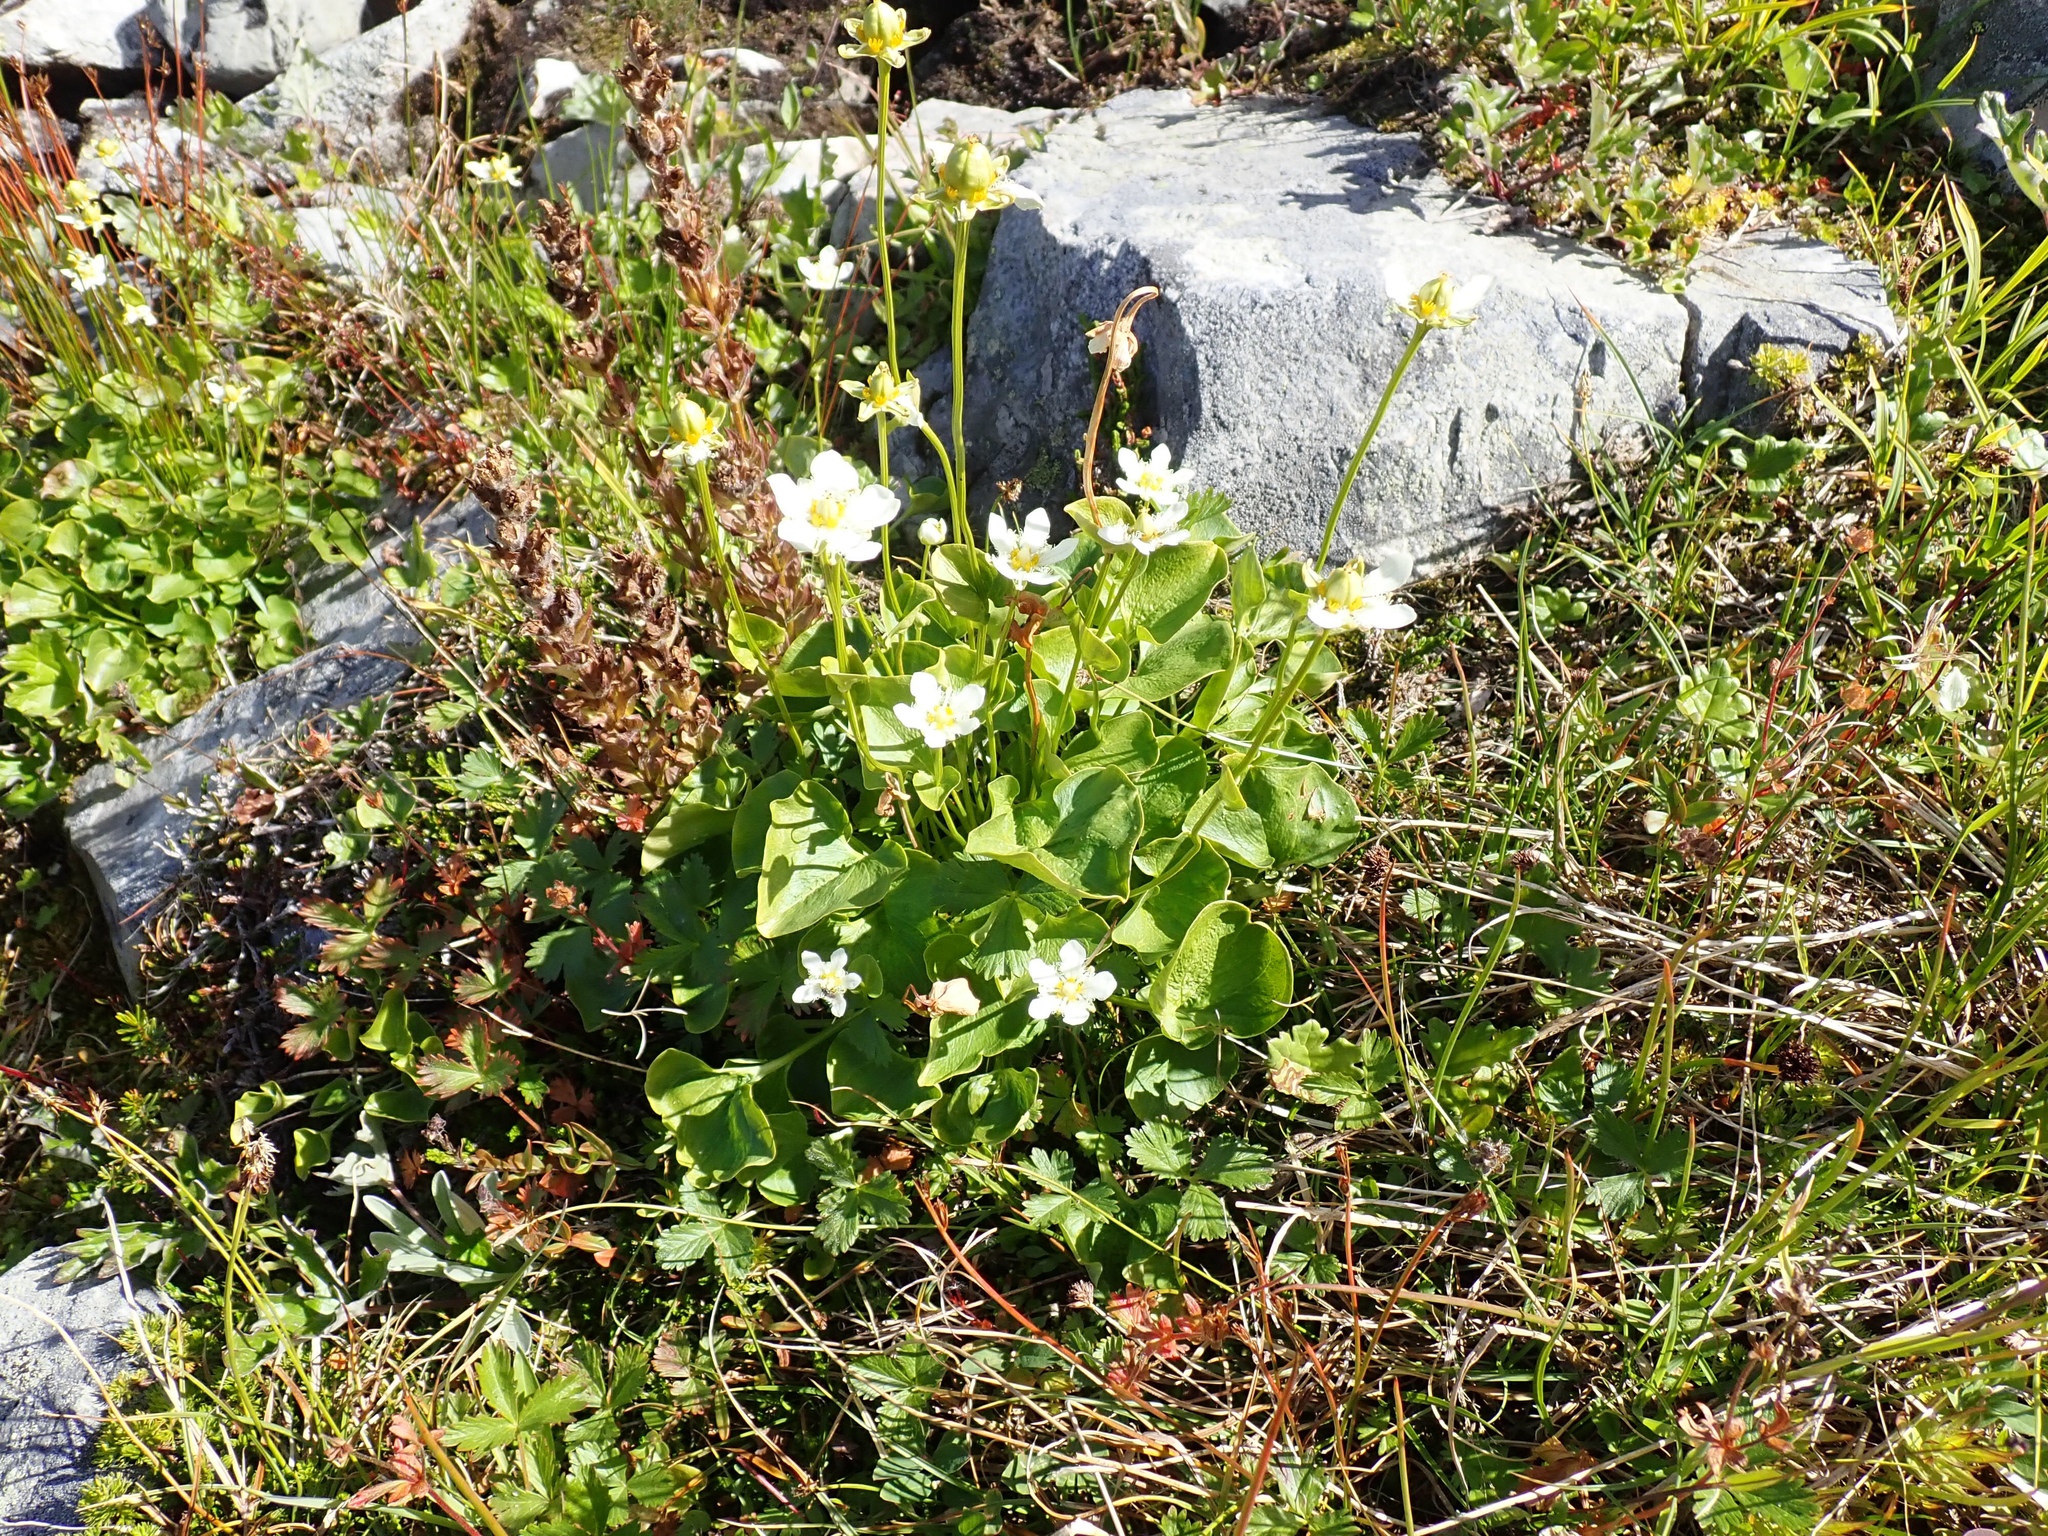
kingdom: Plantae
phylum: Tracheophyta
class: Magnoliopsida
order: Celastrales
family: Parnassiaceae
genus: Parnassia
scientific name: Parnassia fimbriata
